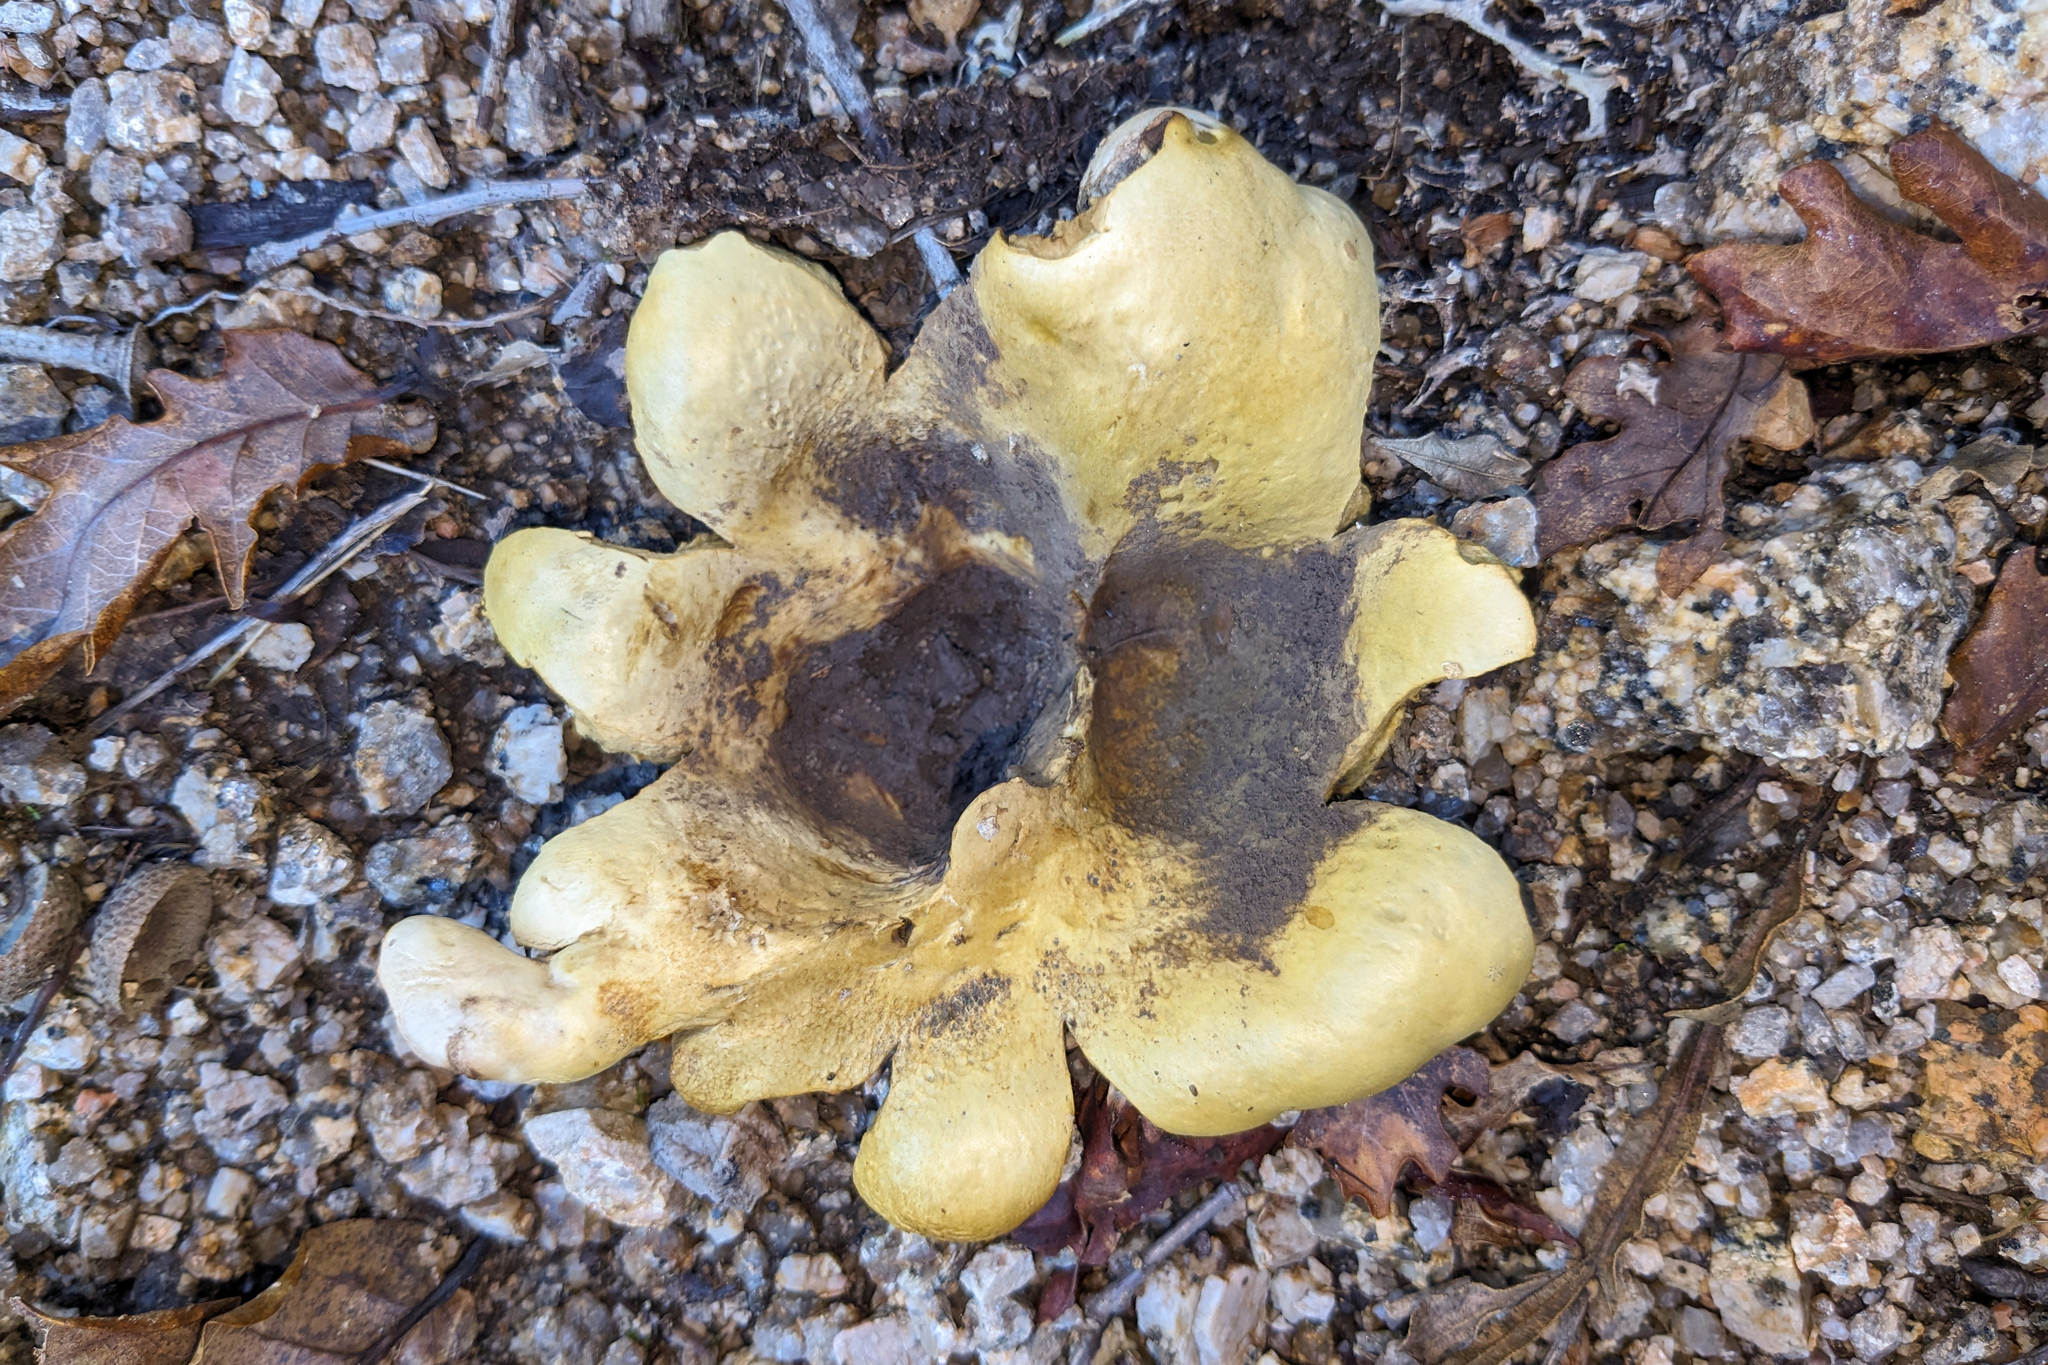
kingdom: Fungi
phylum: Basidiomycota
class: Agaricomycetes
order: Boletales
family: Sclerodermataceae
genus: Scleroderma
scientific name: Scleroderma polyrhizum
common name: Many-rooted earthball
